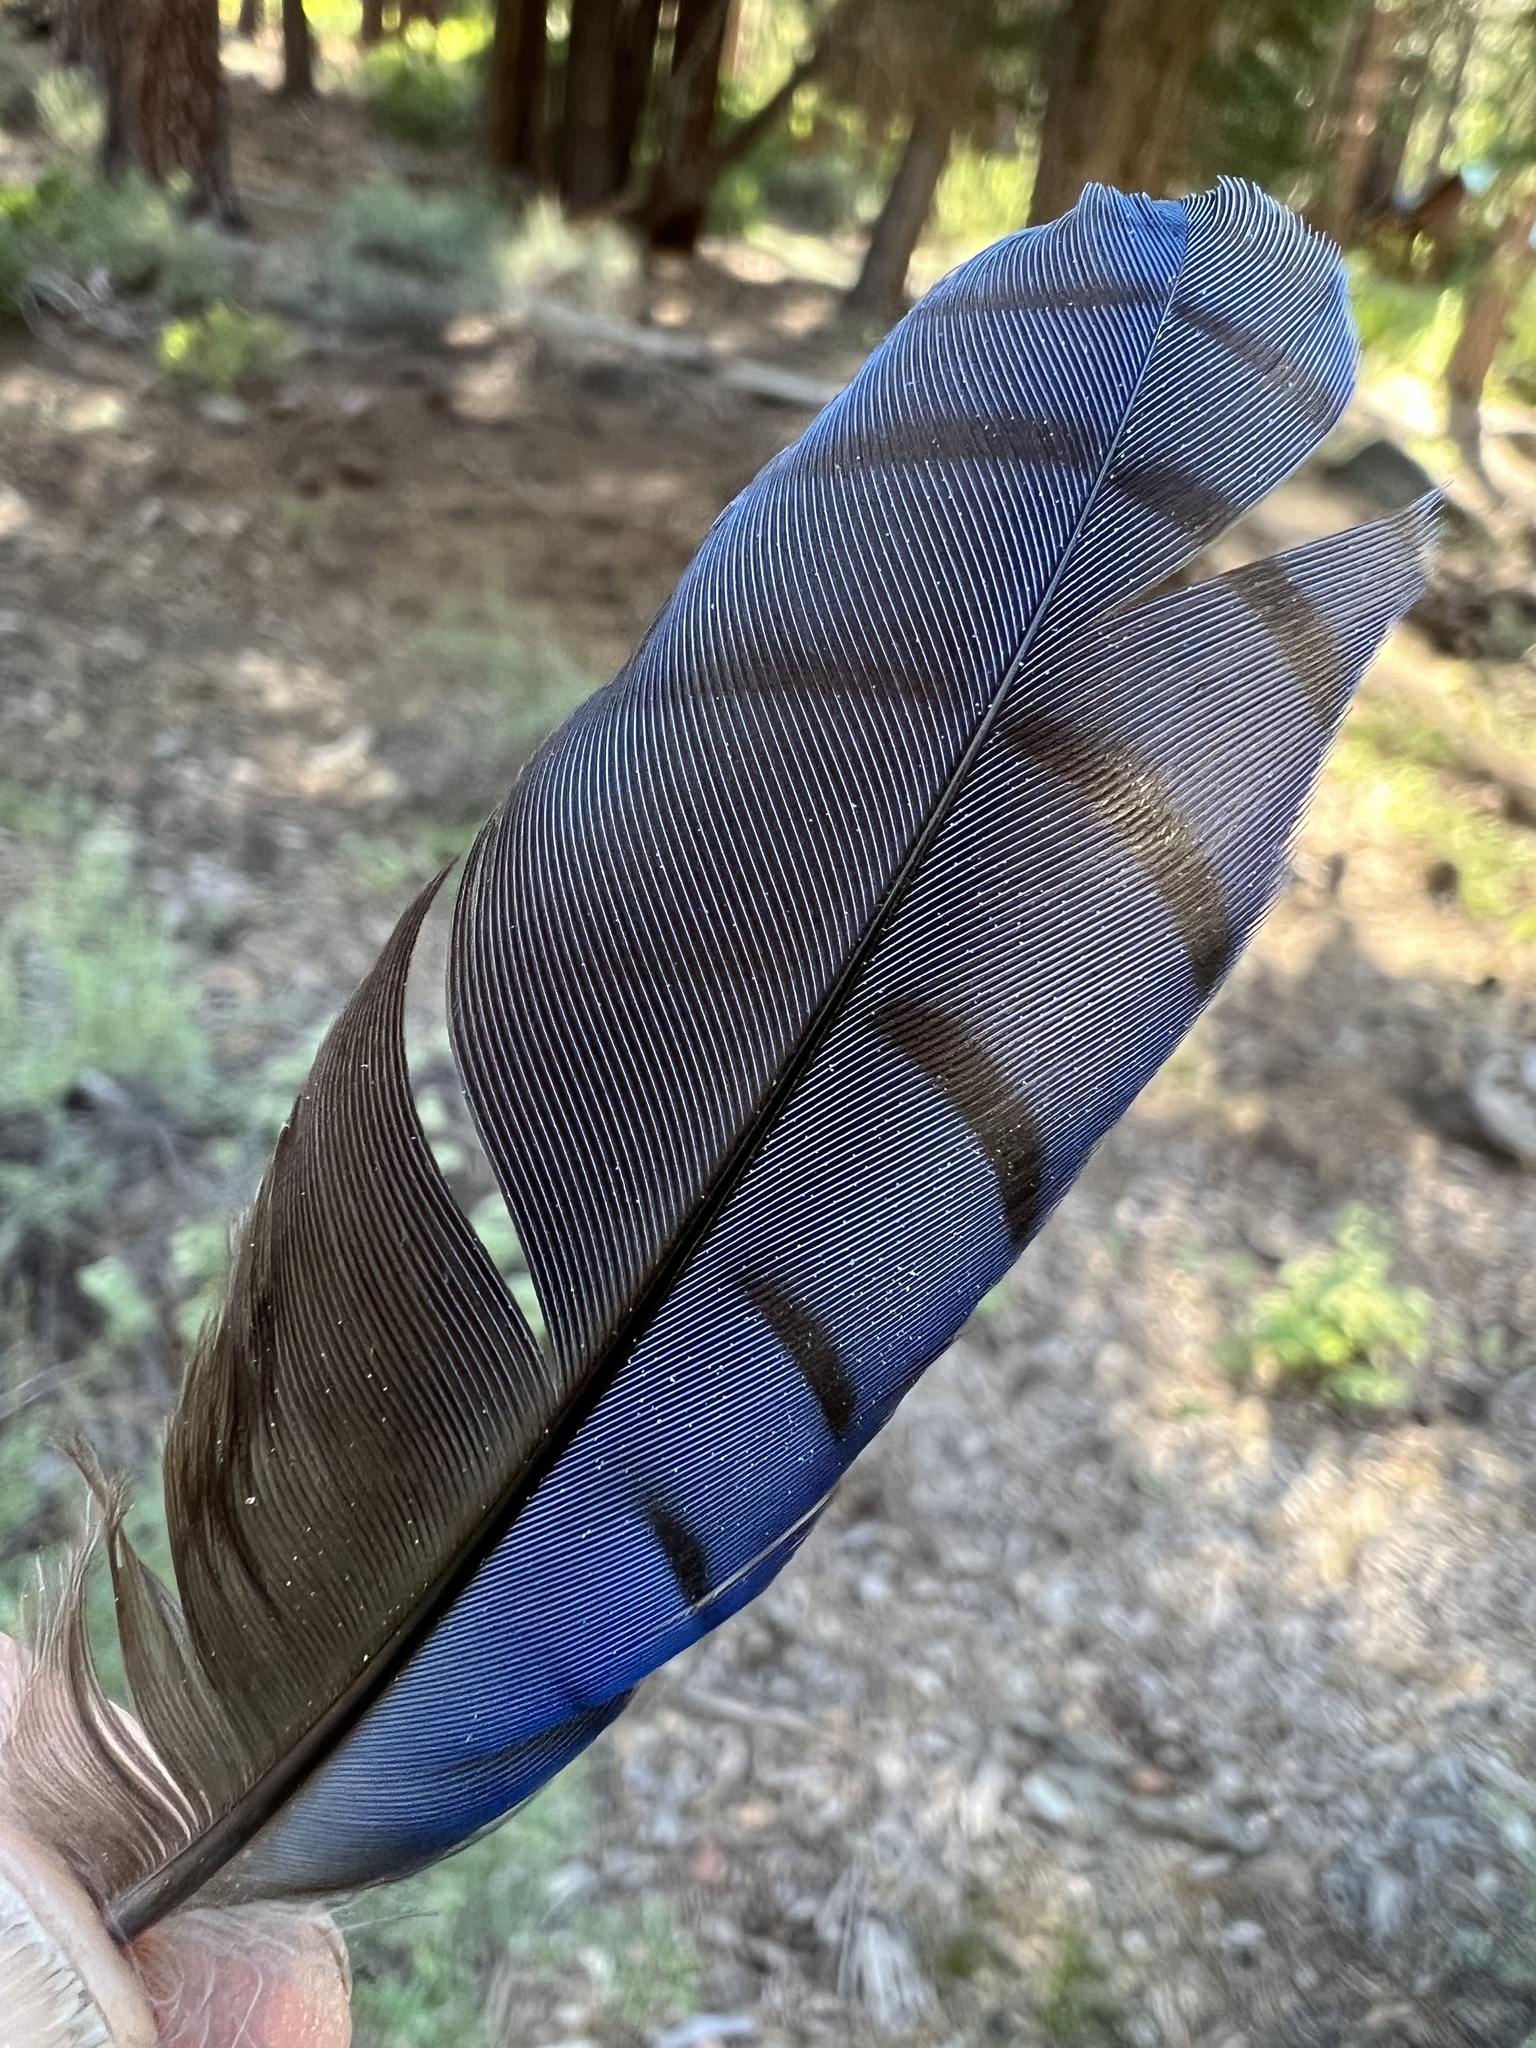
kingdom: Animalia
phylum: Chordata
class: Aves
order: Passeriformes
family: Corvidae
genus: Cyanocitta
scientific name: Cyanocitta stelleri
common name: Steller's jay
